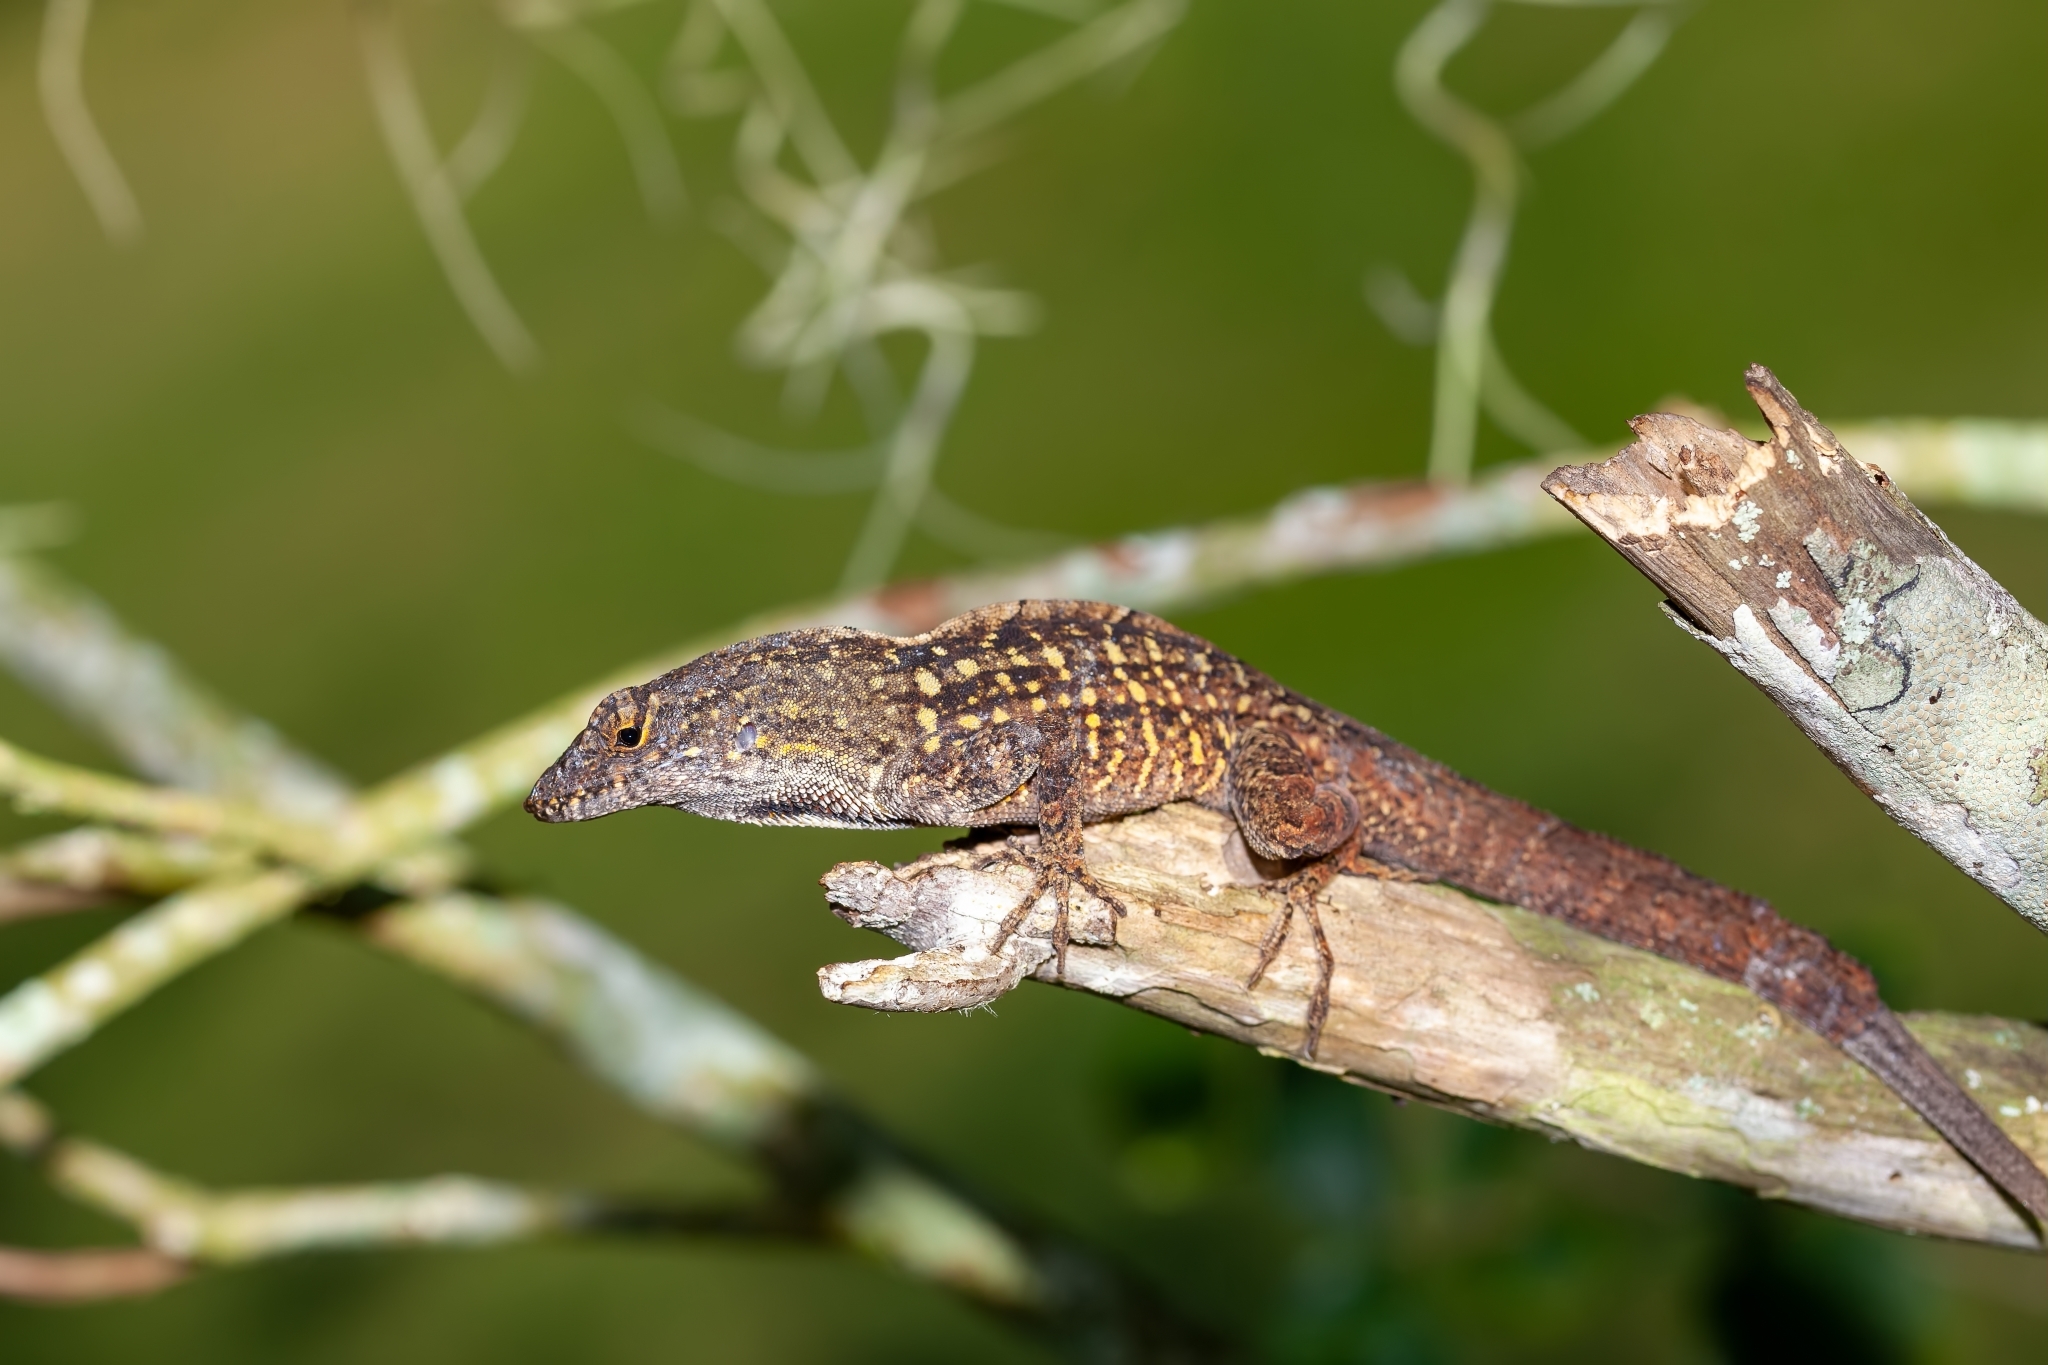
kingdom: Animalia
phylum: Chordata
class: Squamata
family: Dactyloidae
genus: Anolis
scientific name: Anolis sagrei
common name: Brown anole
